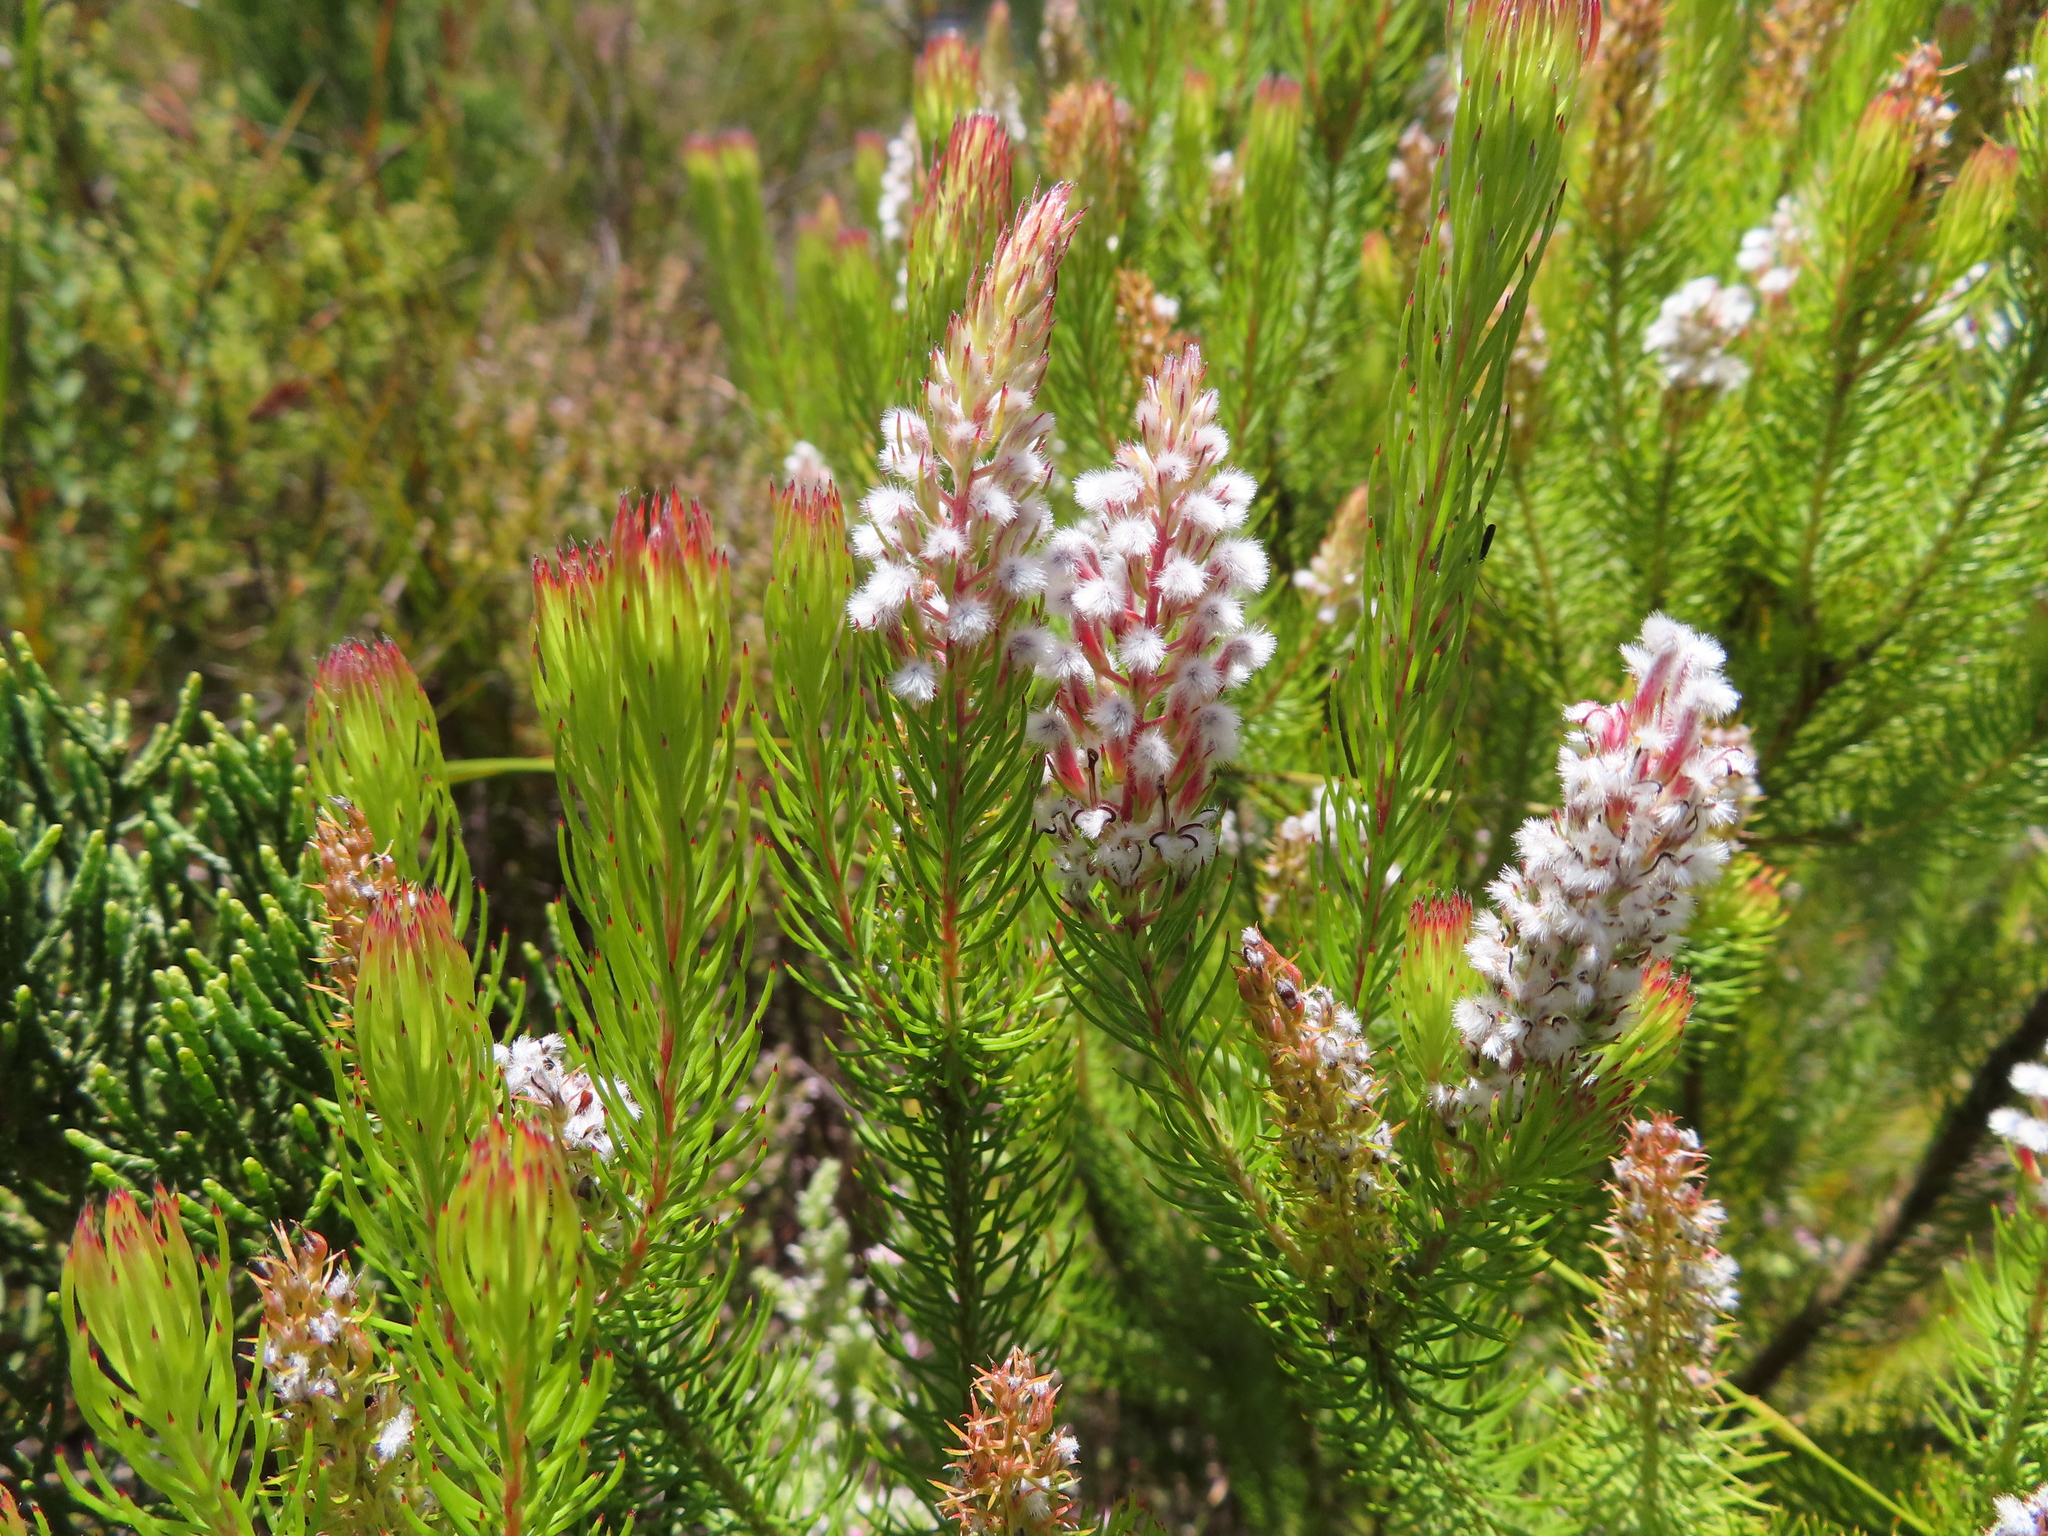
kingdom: Plantae
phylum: Tracheophyta
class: Magnoliopsida
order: Proteales
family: Proteaceae
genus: Spatalla
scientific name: Spatalla parilis
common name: Spike spoon
